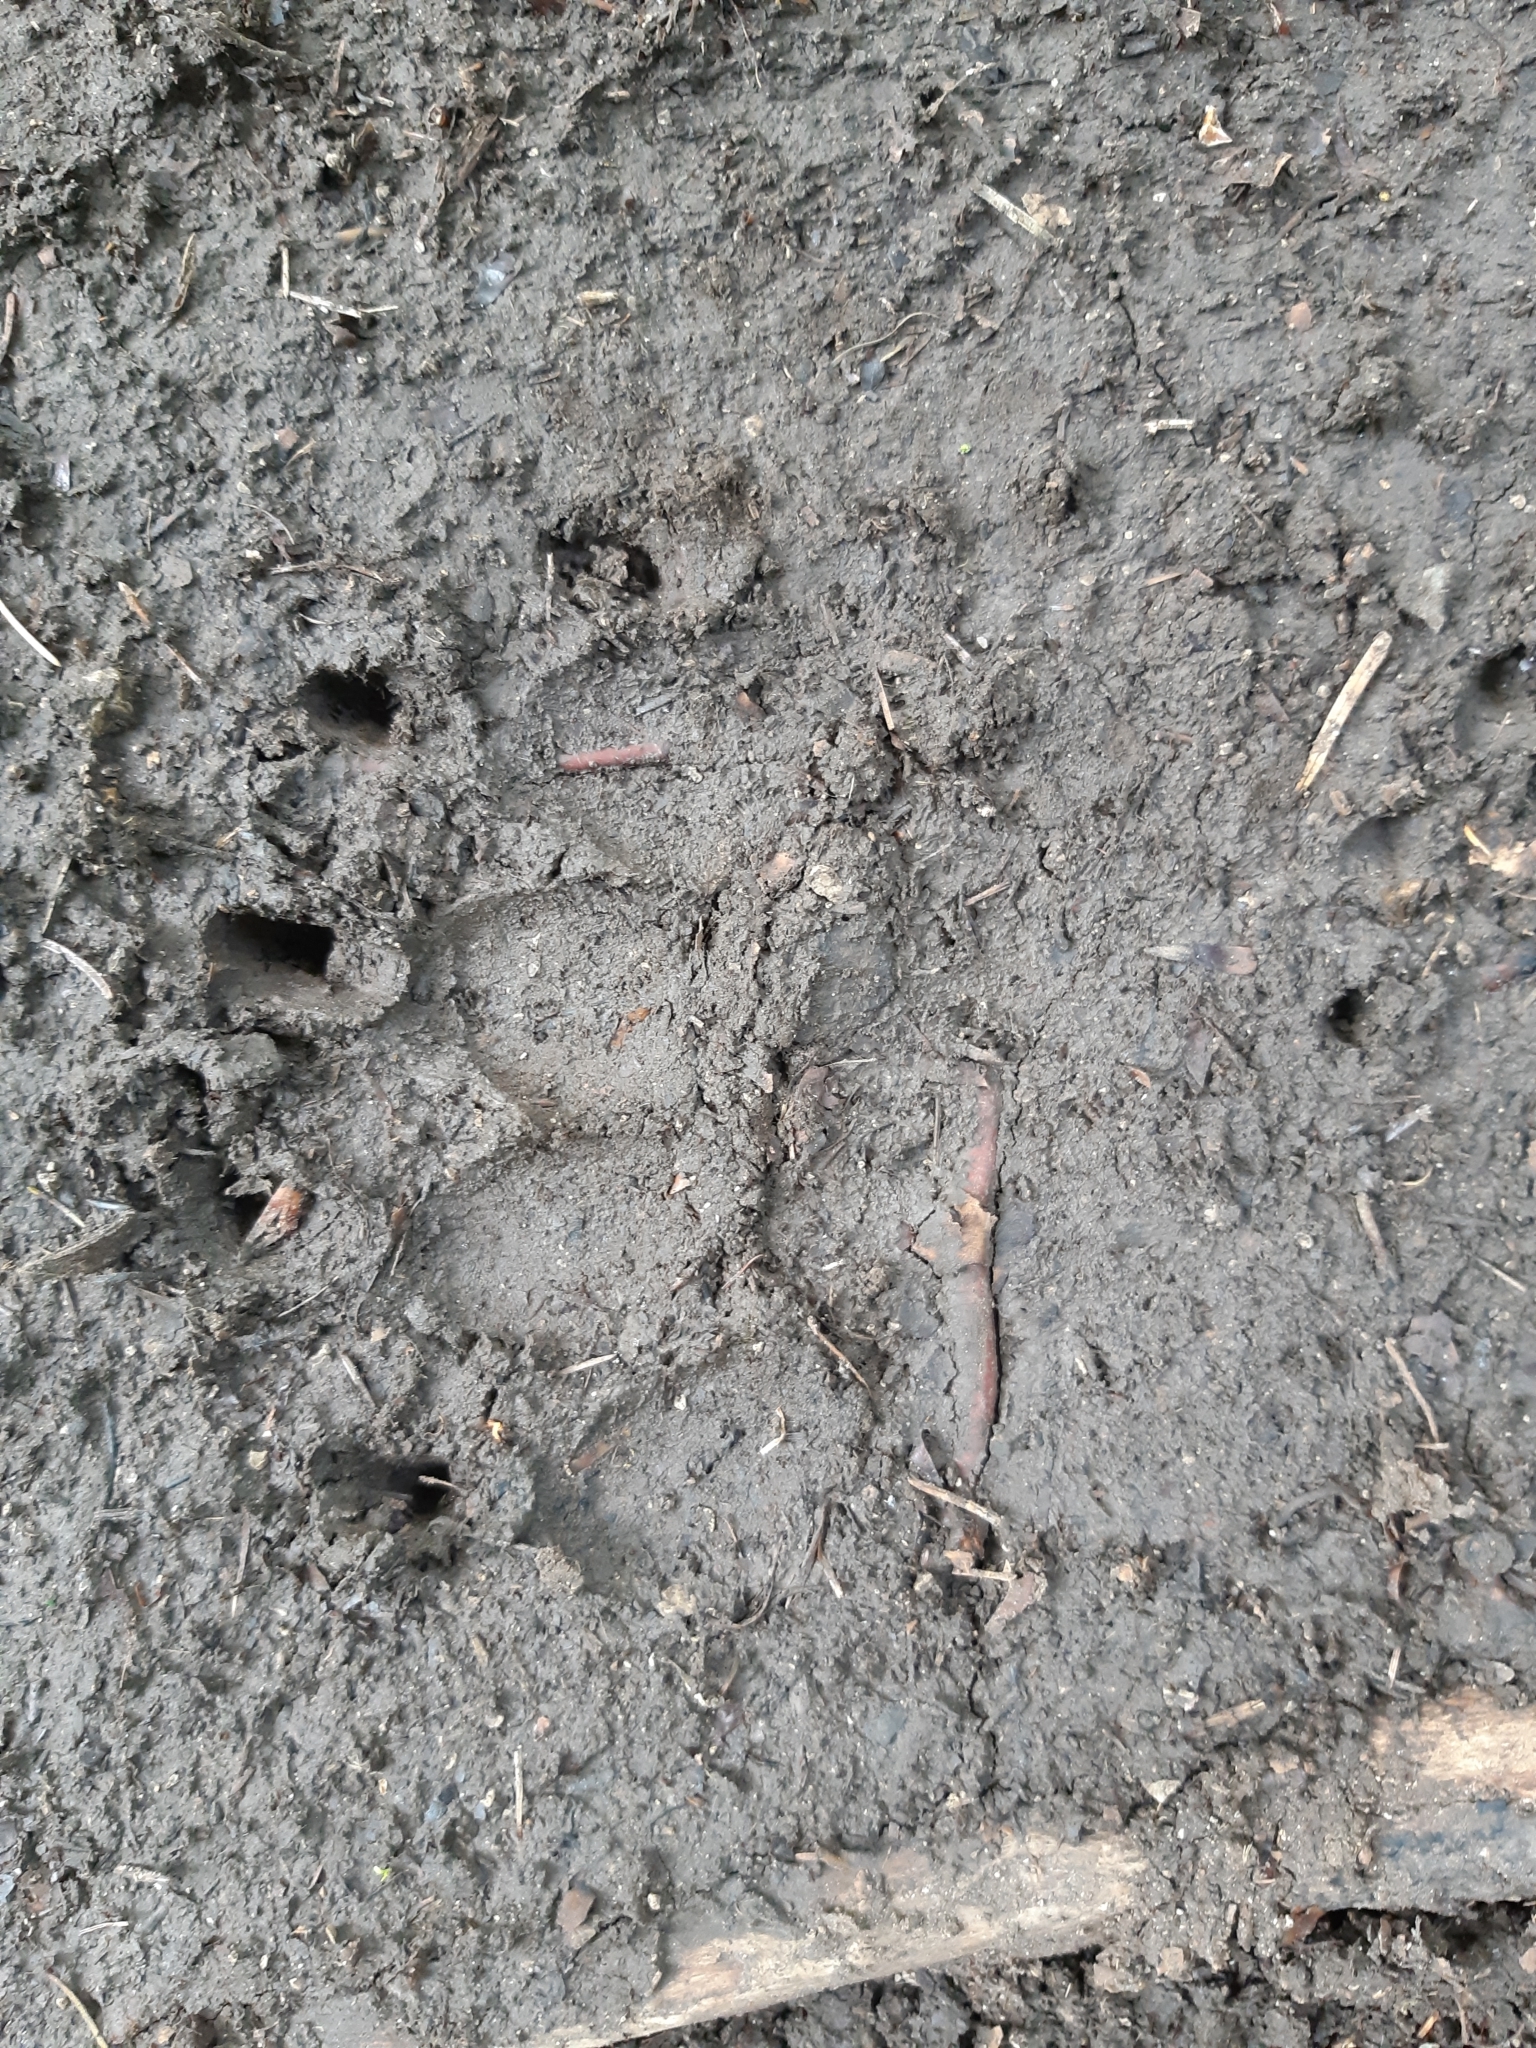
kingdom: Animalia
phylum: Chordata
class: Mammalia
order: Carnivora
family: Ursidae
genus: Ursus
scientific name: Ursus arctos
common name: Brown bear
